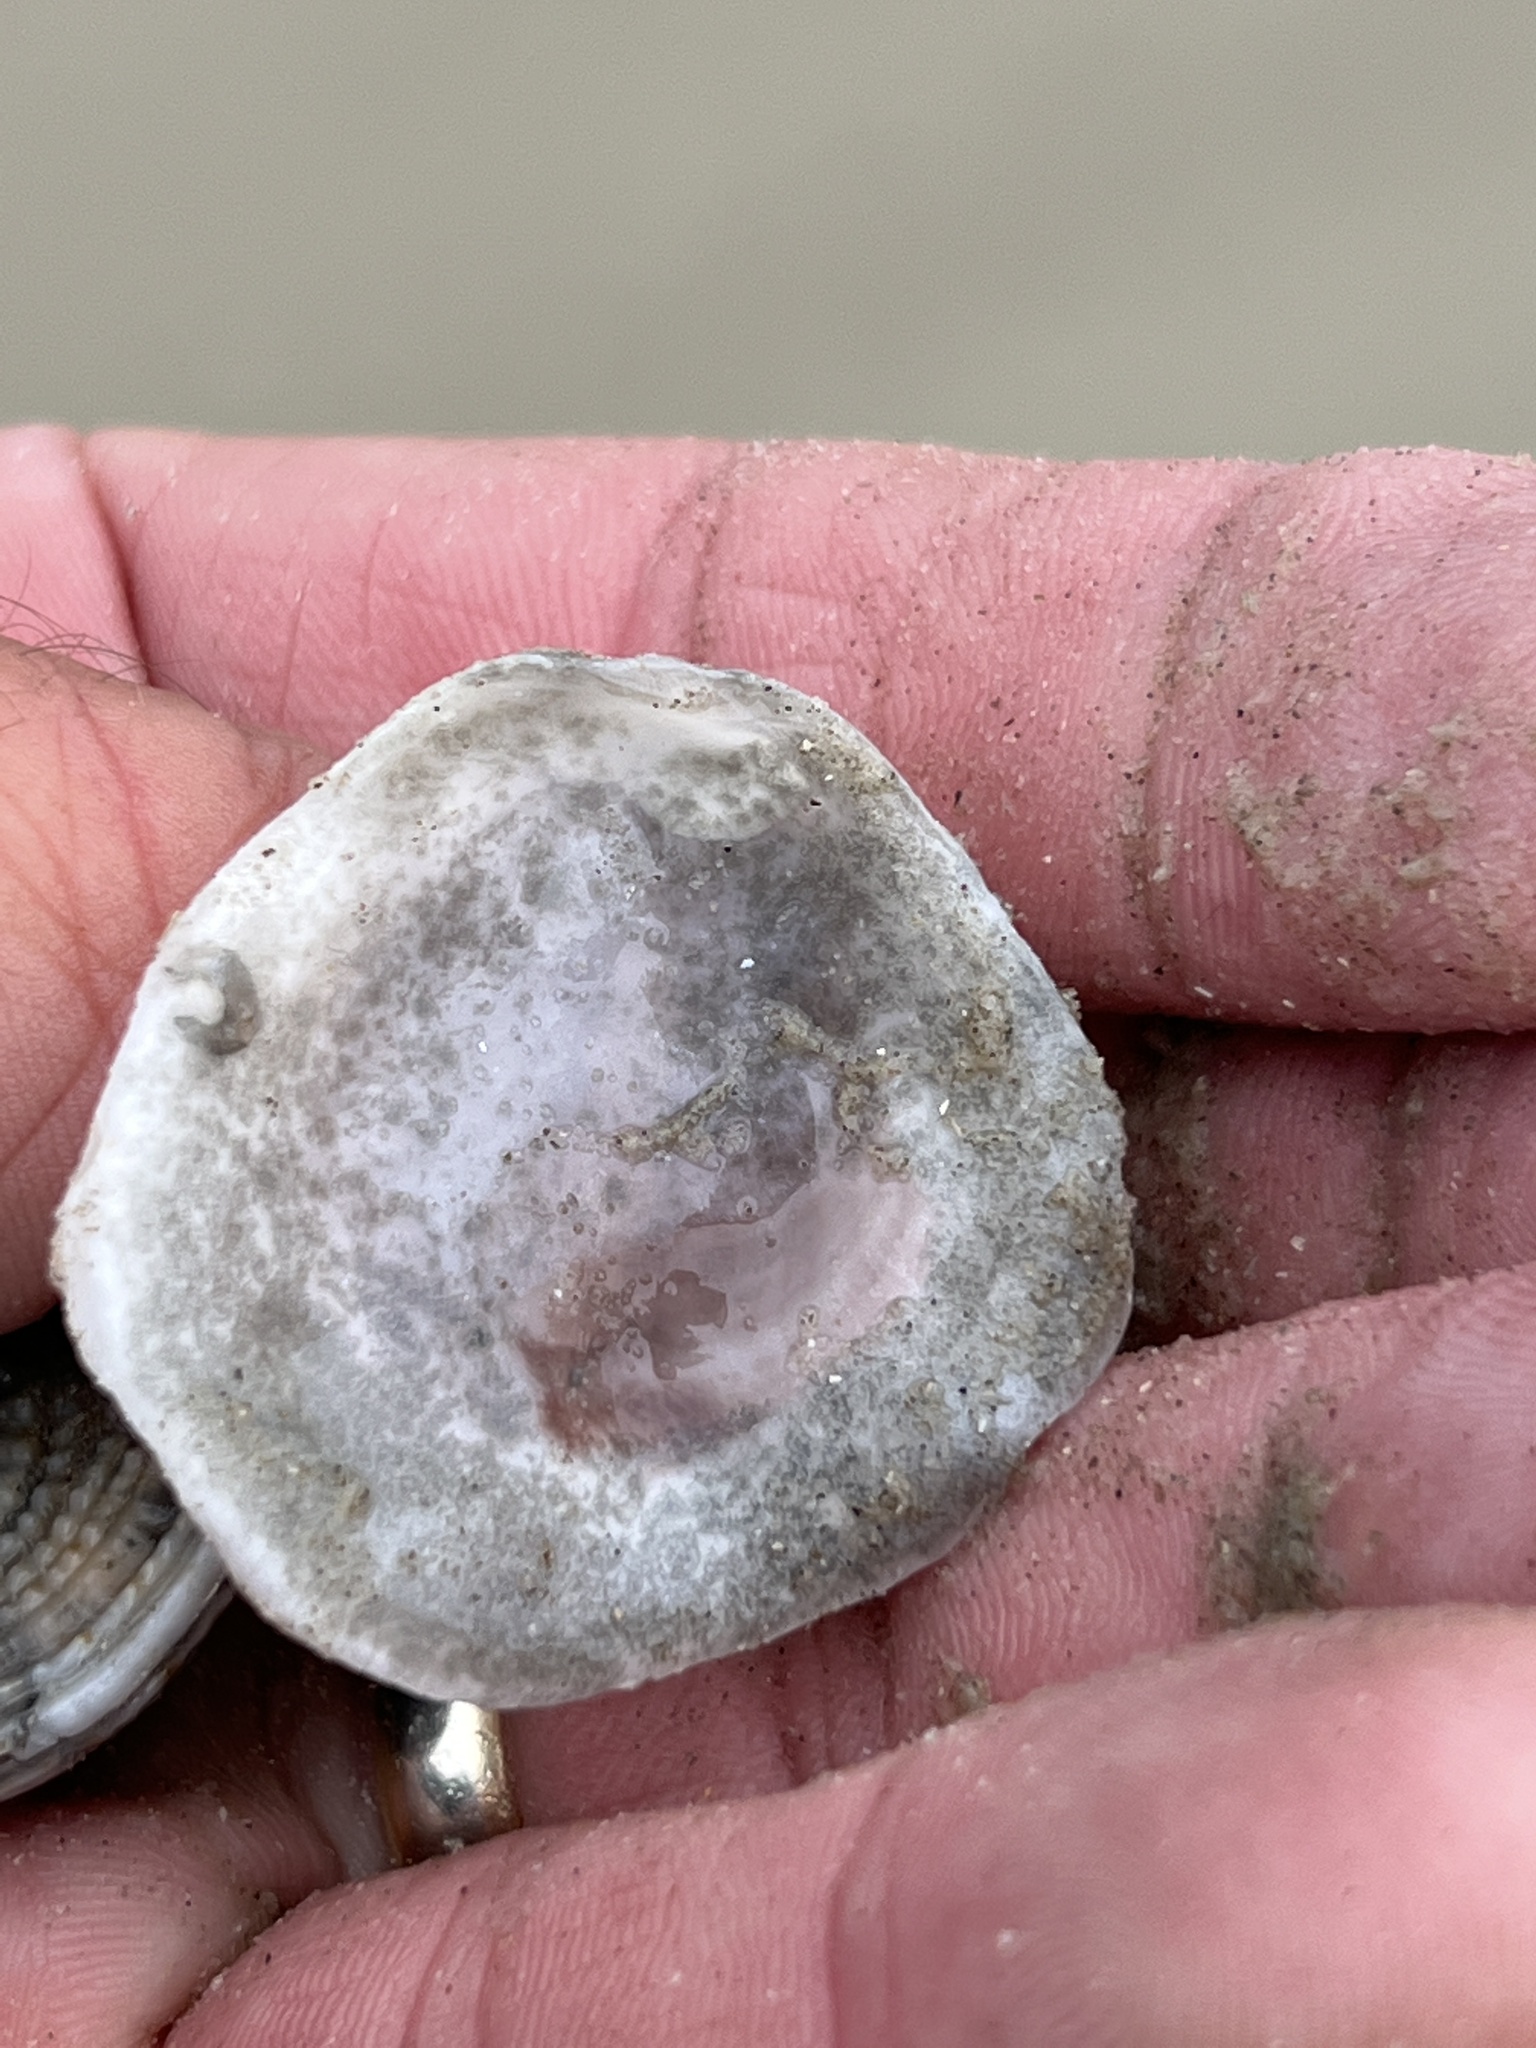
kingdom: Animalia
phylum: Mollusca
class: Bivalvia
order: Ostreida
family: Ostreidae
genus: Crassostrea
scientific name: Crassostrea virginica
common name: American oyster
